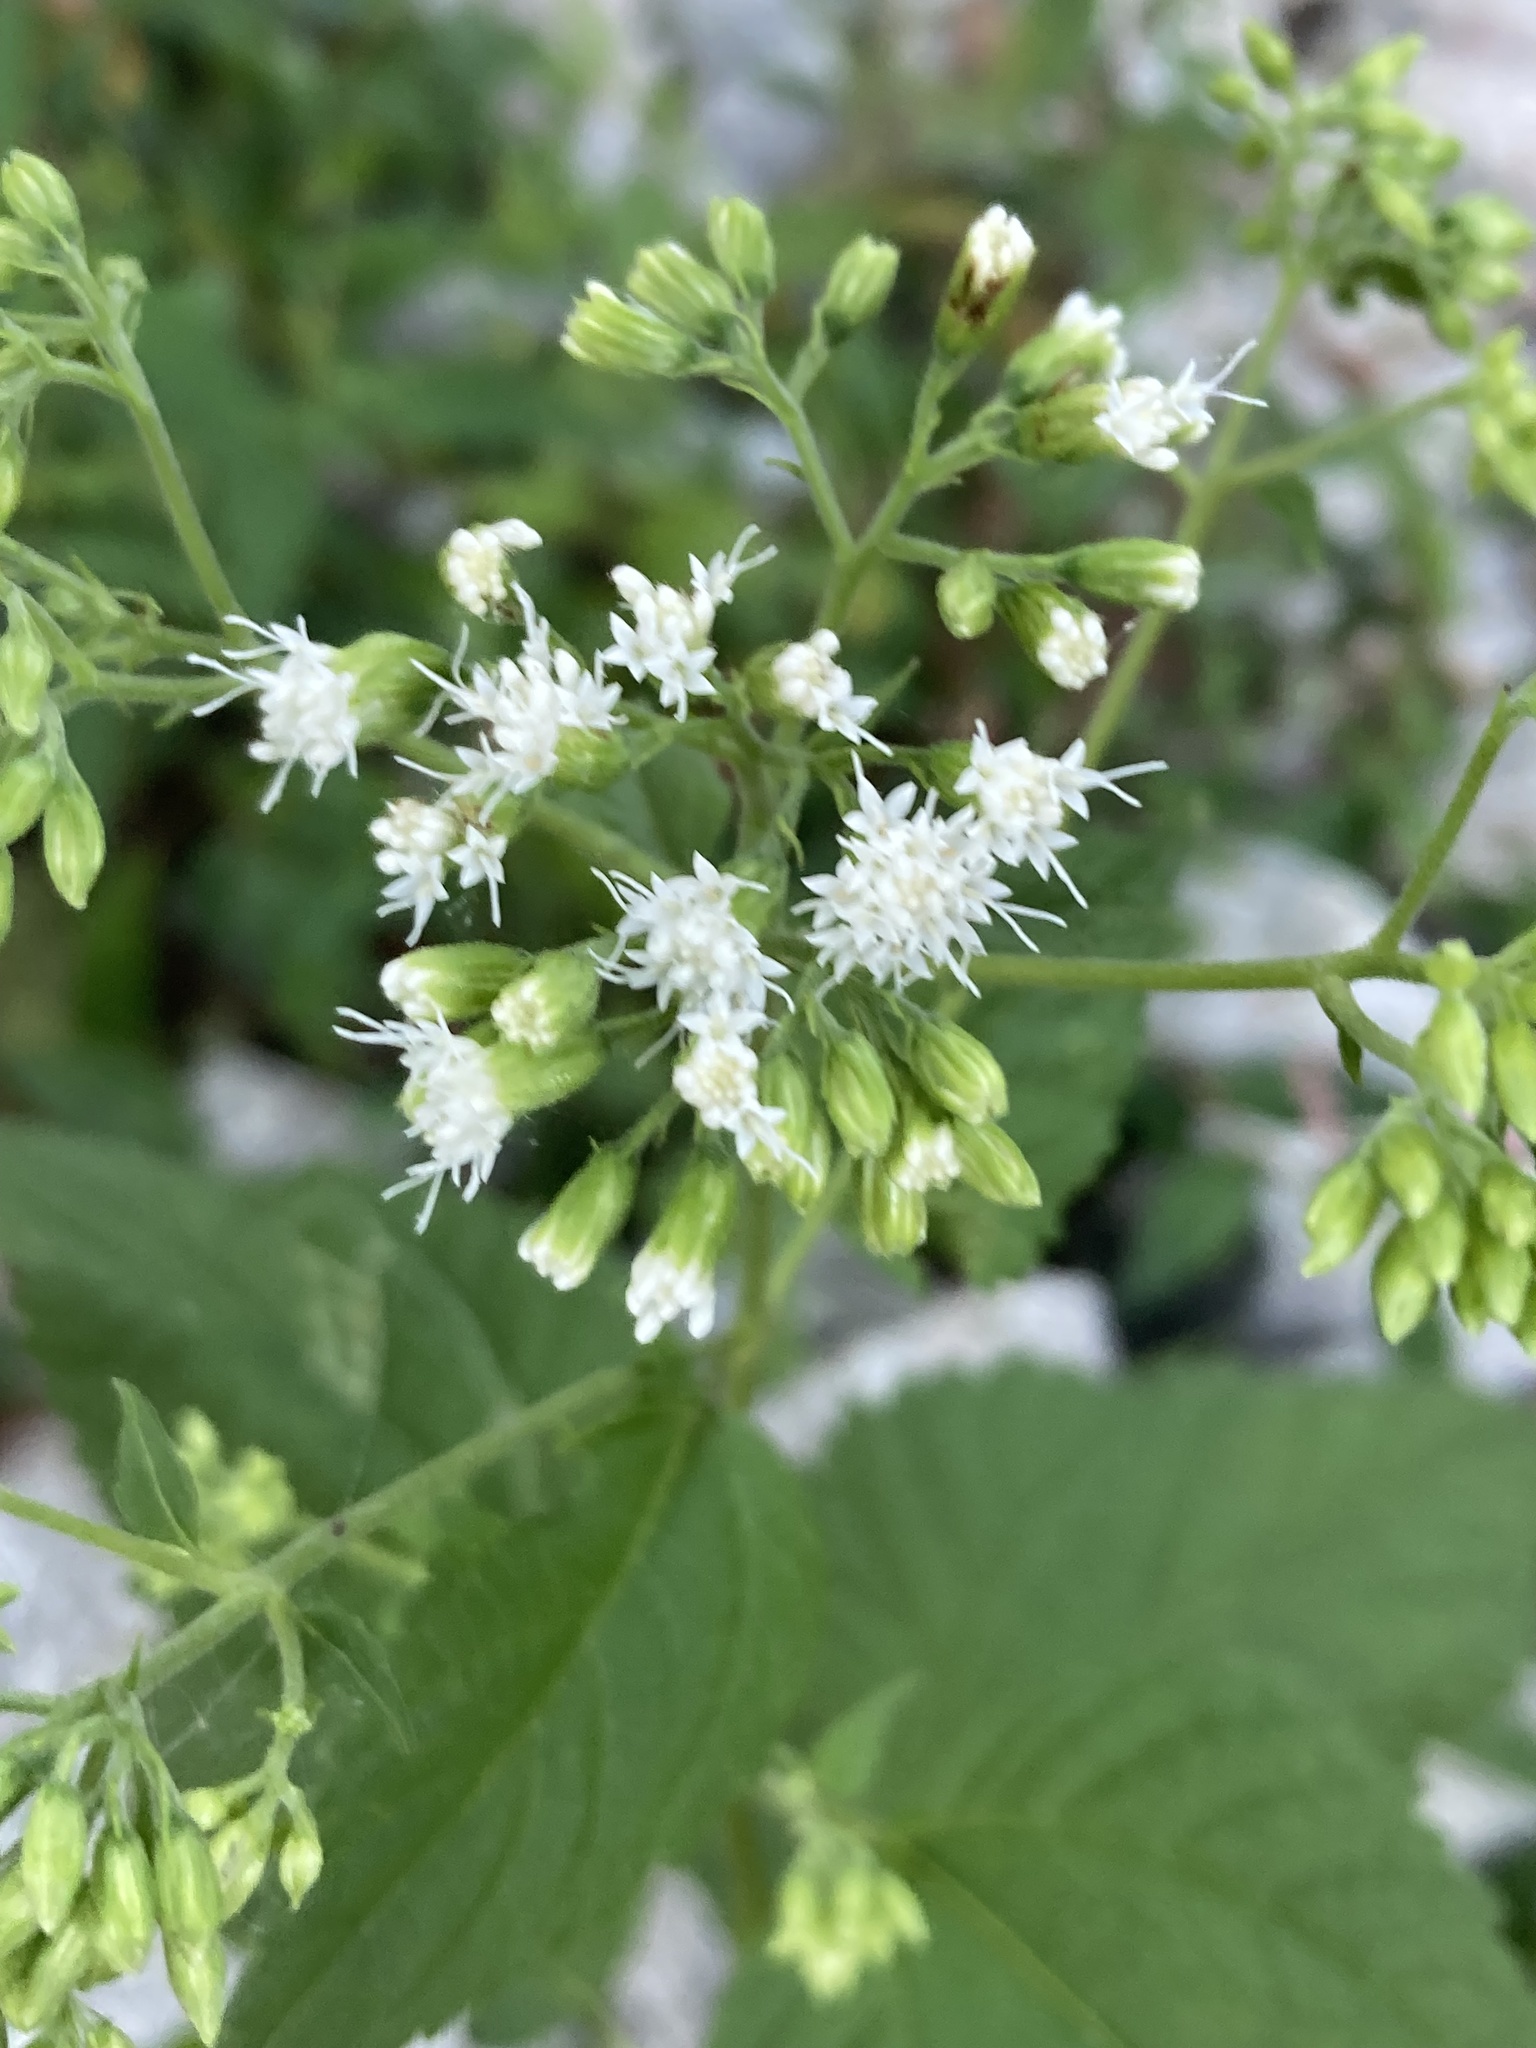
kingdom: Plantae
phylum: Tracheophyta
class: Magnoliopsida
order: Asterales
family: Asteraceae
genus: Ageratina
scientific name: Ageratina altissima
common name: White snakeroot
